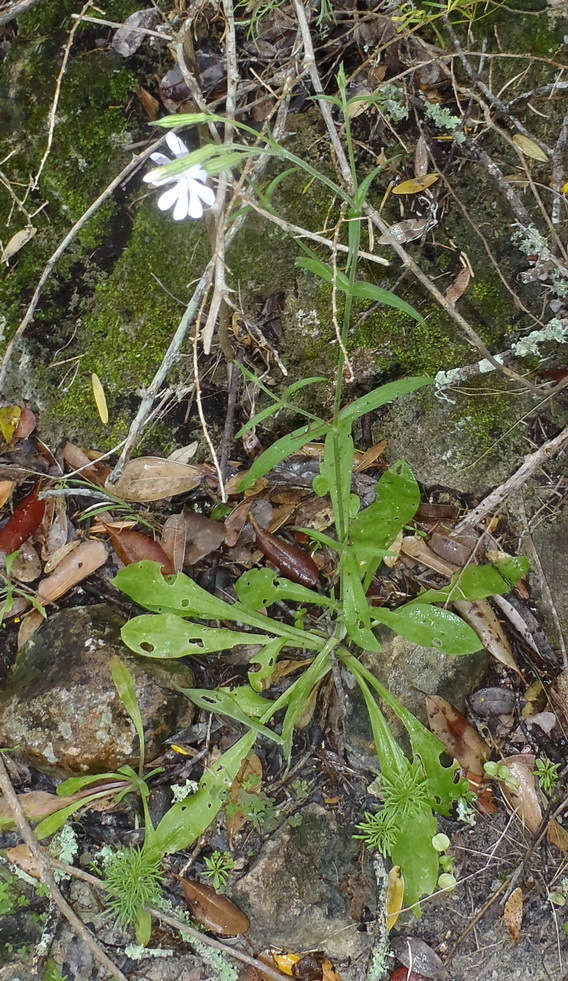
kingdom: Plantae
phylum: Tracheophyta
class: Magnoliopsida
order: Caryophyllales
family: Caryophyllaceae
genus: Silene
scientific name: Silene undulata
